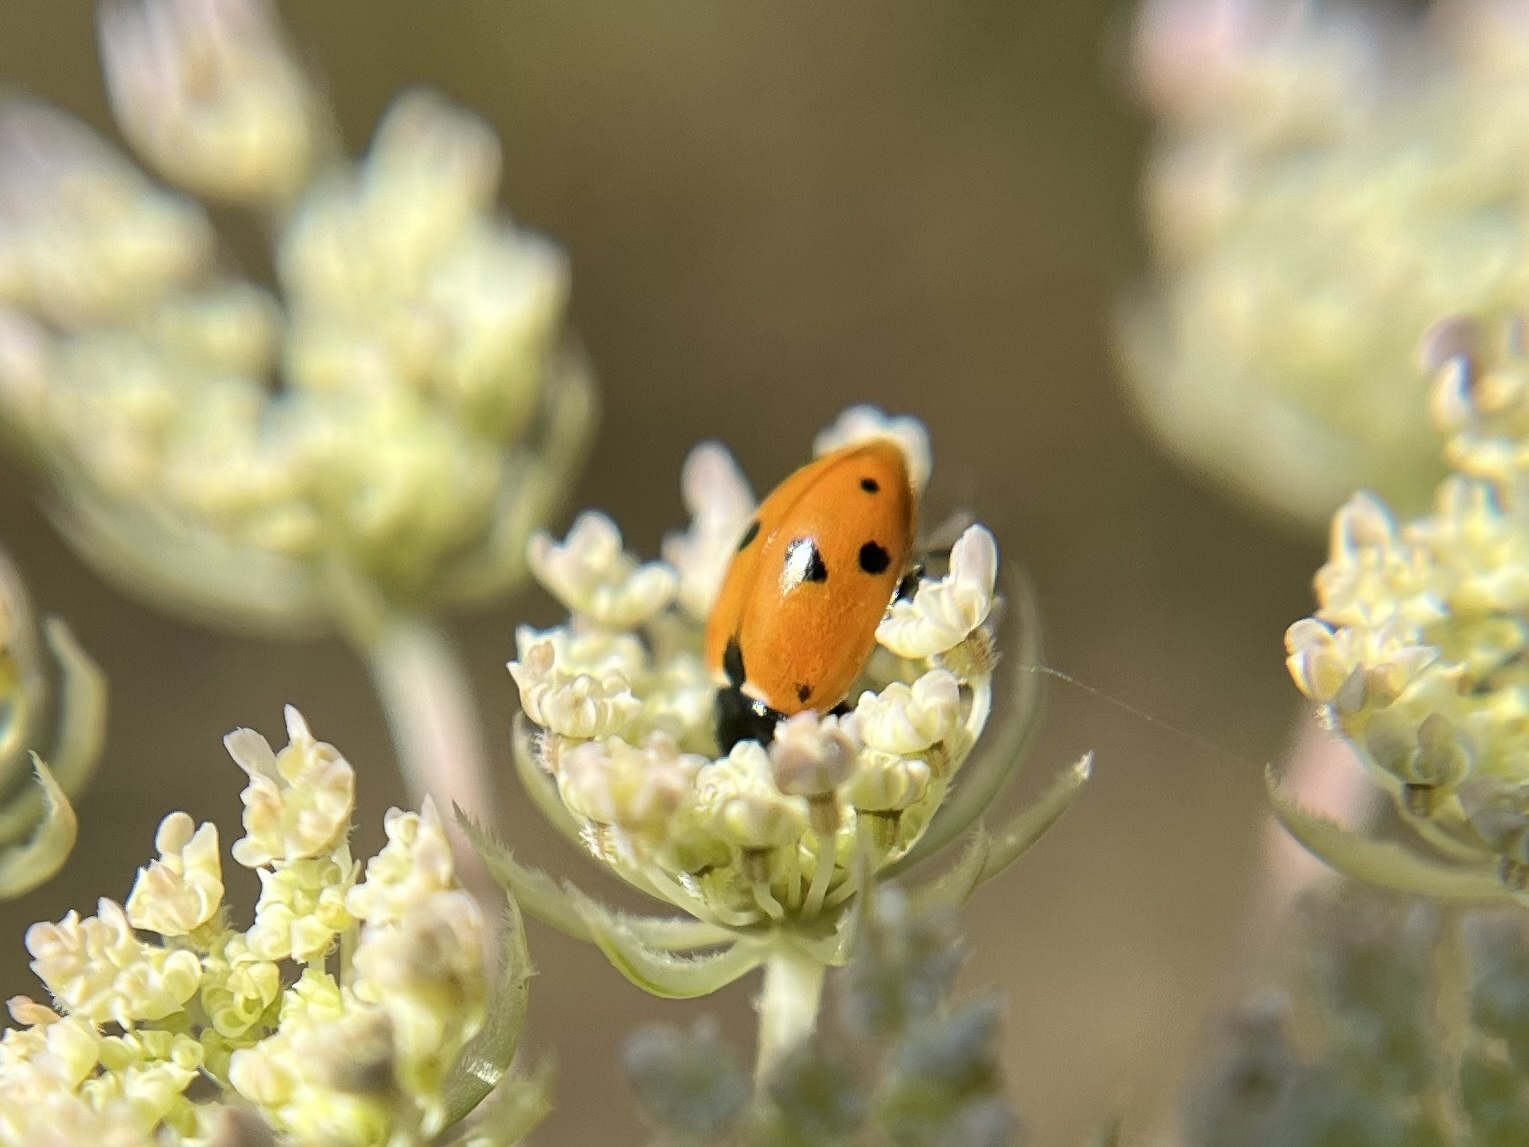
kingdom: Animalia
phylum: Arthropoda
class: Insecta
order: Coleoptera
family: Coccinellidae
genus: Hippodamia
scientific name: Hippodamia variegata
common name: Ladybird beetle
